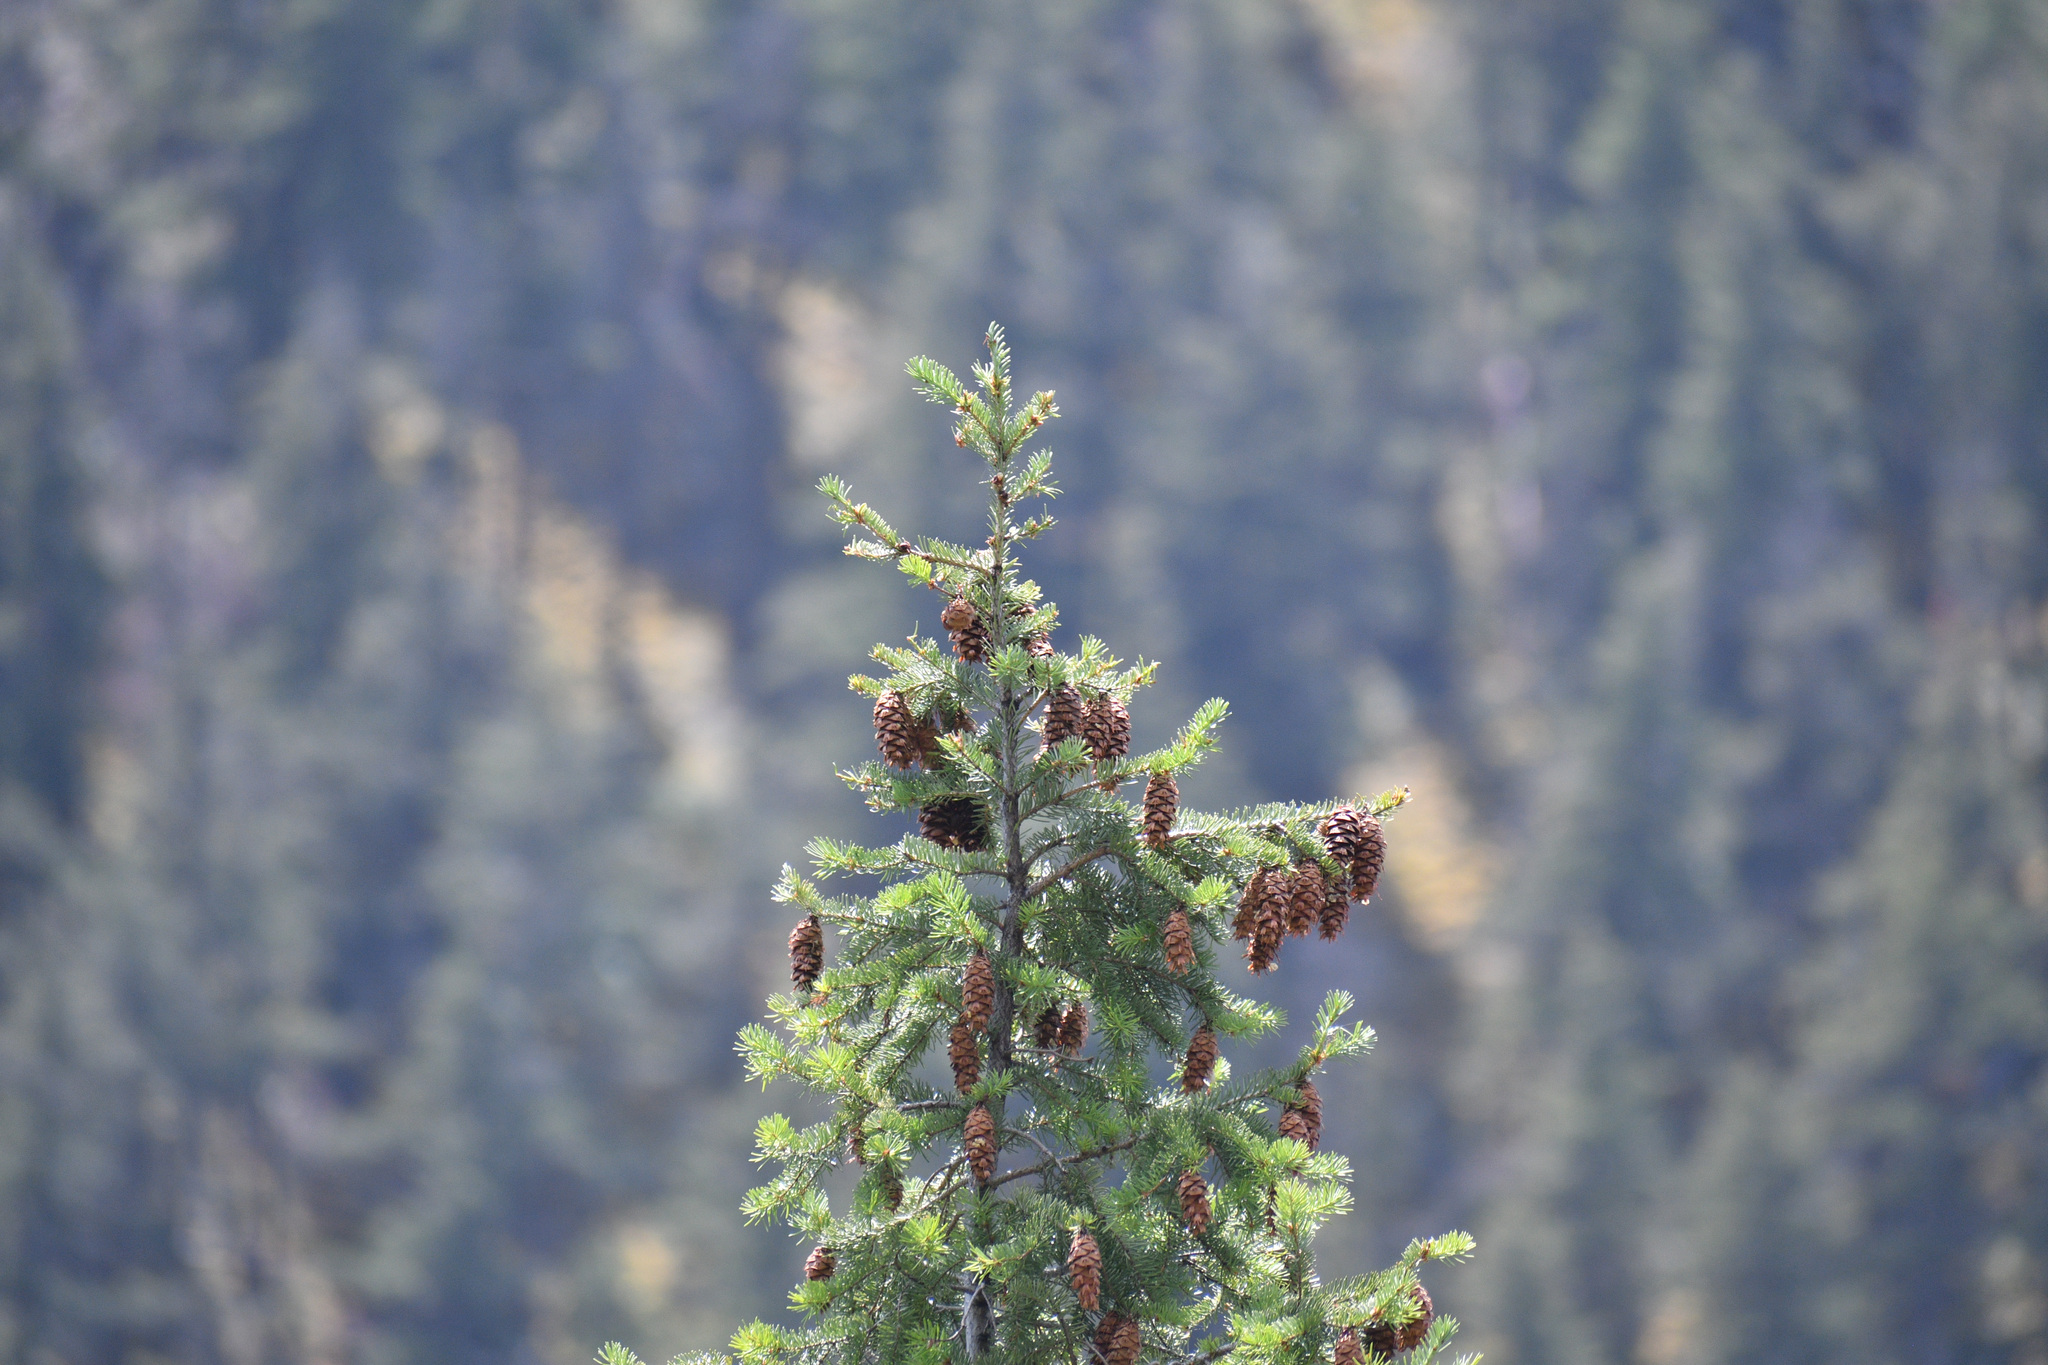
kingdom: Plantae
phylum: Tracheophyta
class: Pinopsida
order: Pinales
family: Pinaceae
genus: Pseudotsuga
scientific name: Pseudotsuga menziesii
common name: Douglas fir
